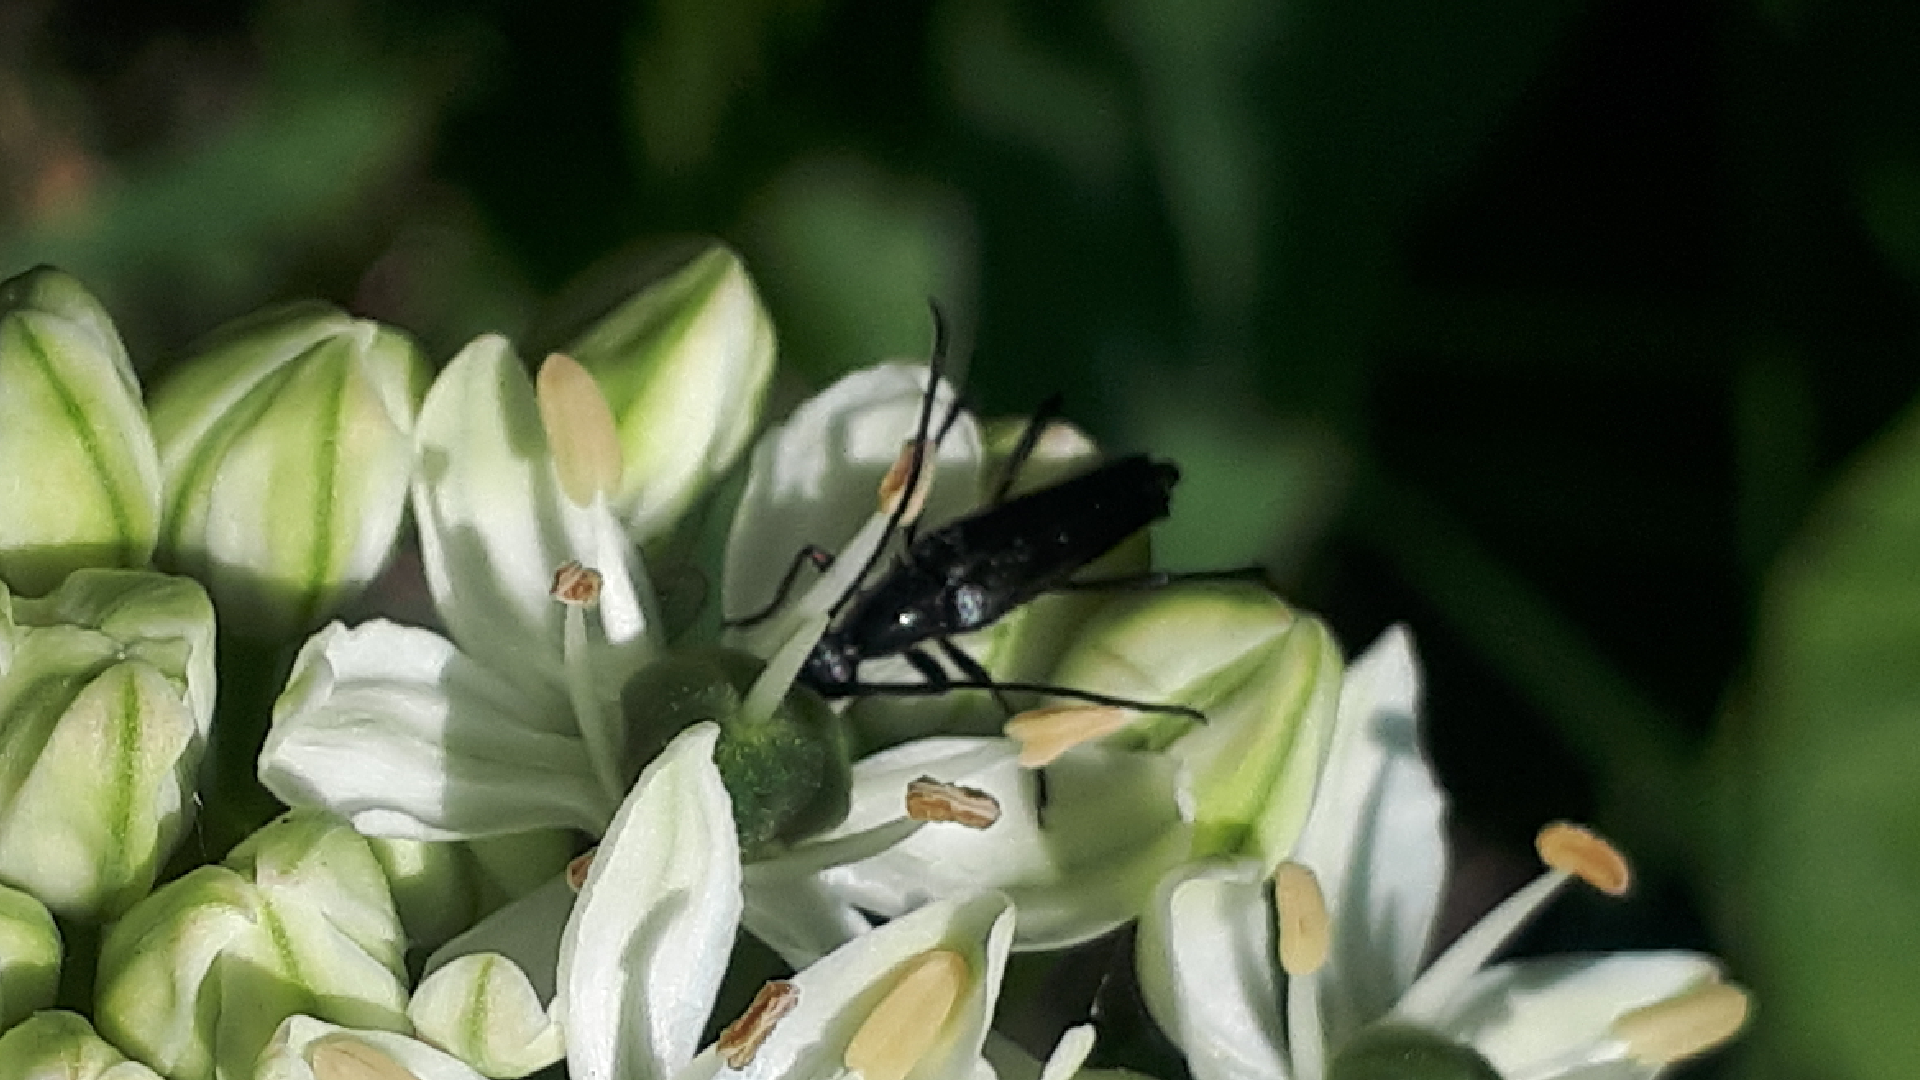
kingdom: Animalia
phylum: Arthropoda
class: Insecta
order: Coleoptera
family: Cerambycidae
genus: Stenurella
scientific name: Stenurella nigra
